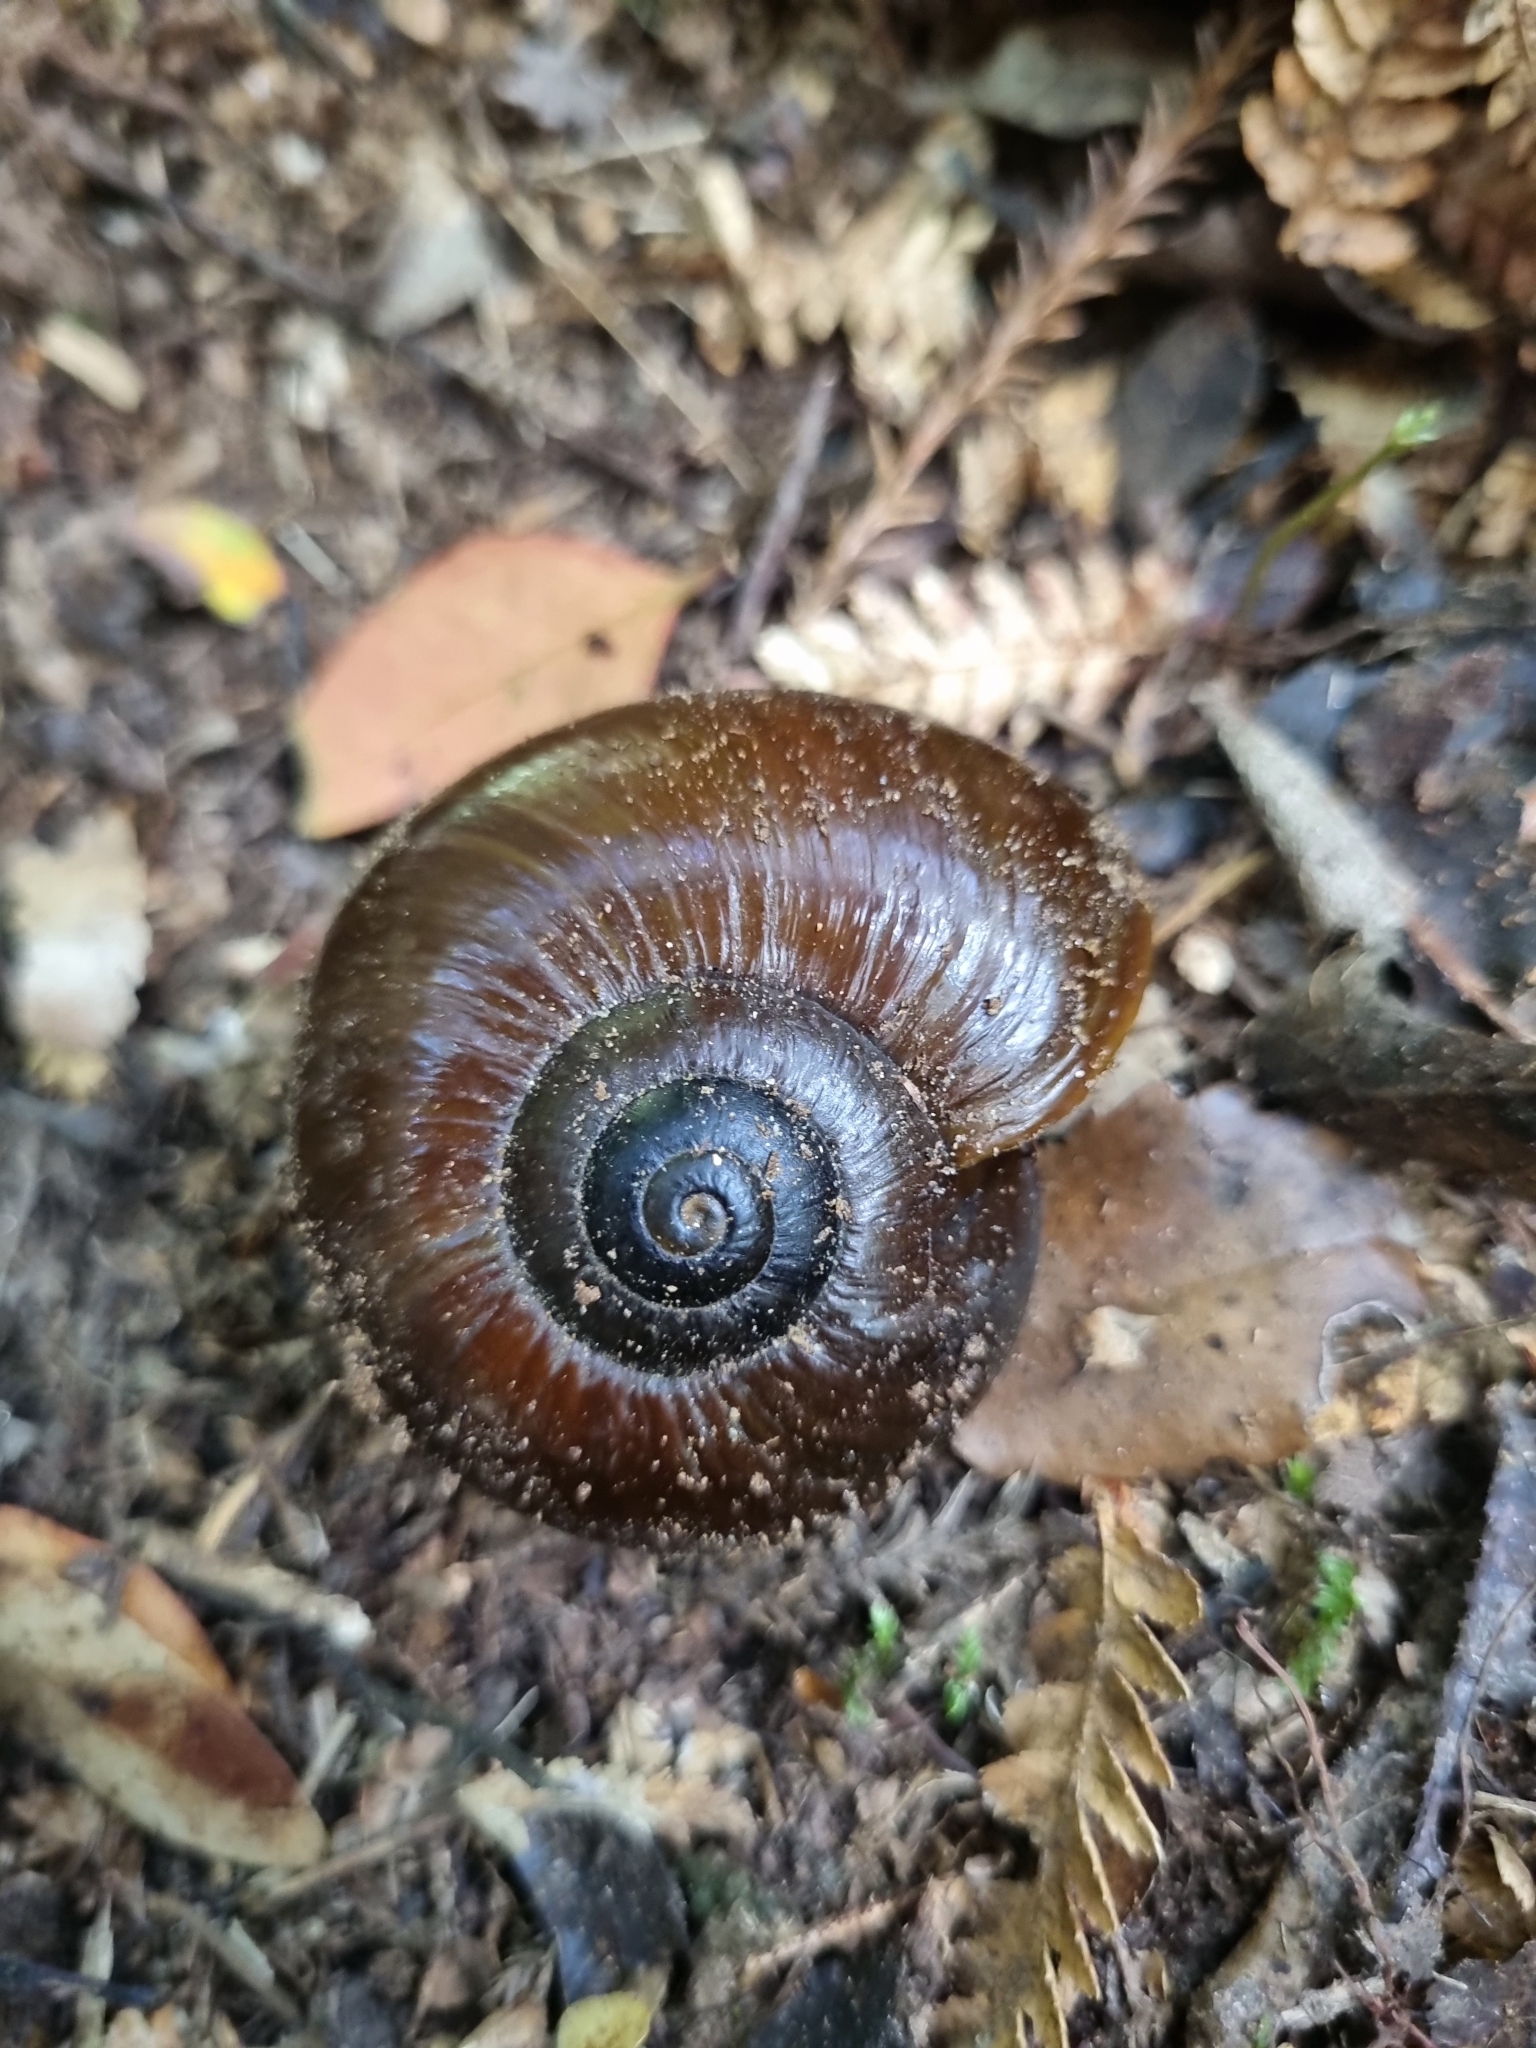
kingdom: Animalia
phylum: Mollusca
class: Gastropoda
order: Stylommatophora
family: Rhytididae
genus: Powelliphanta
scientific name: Powelliphanta superba
